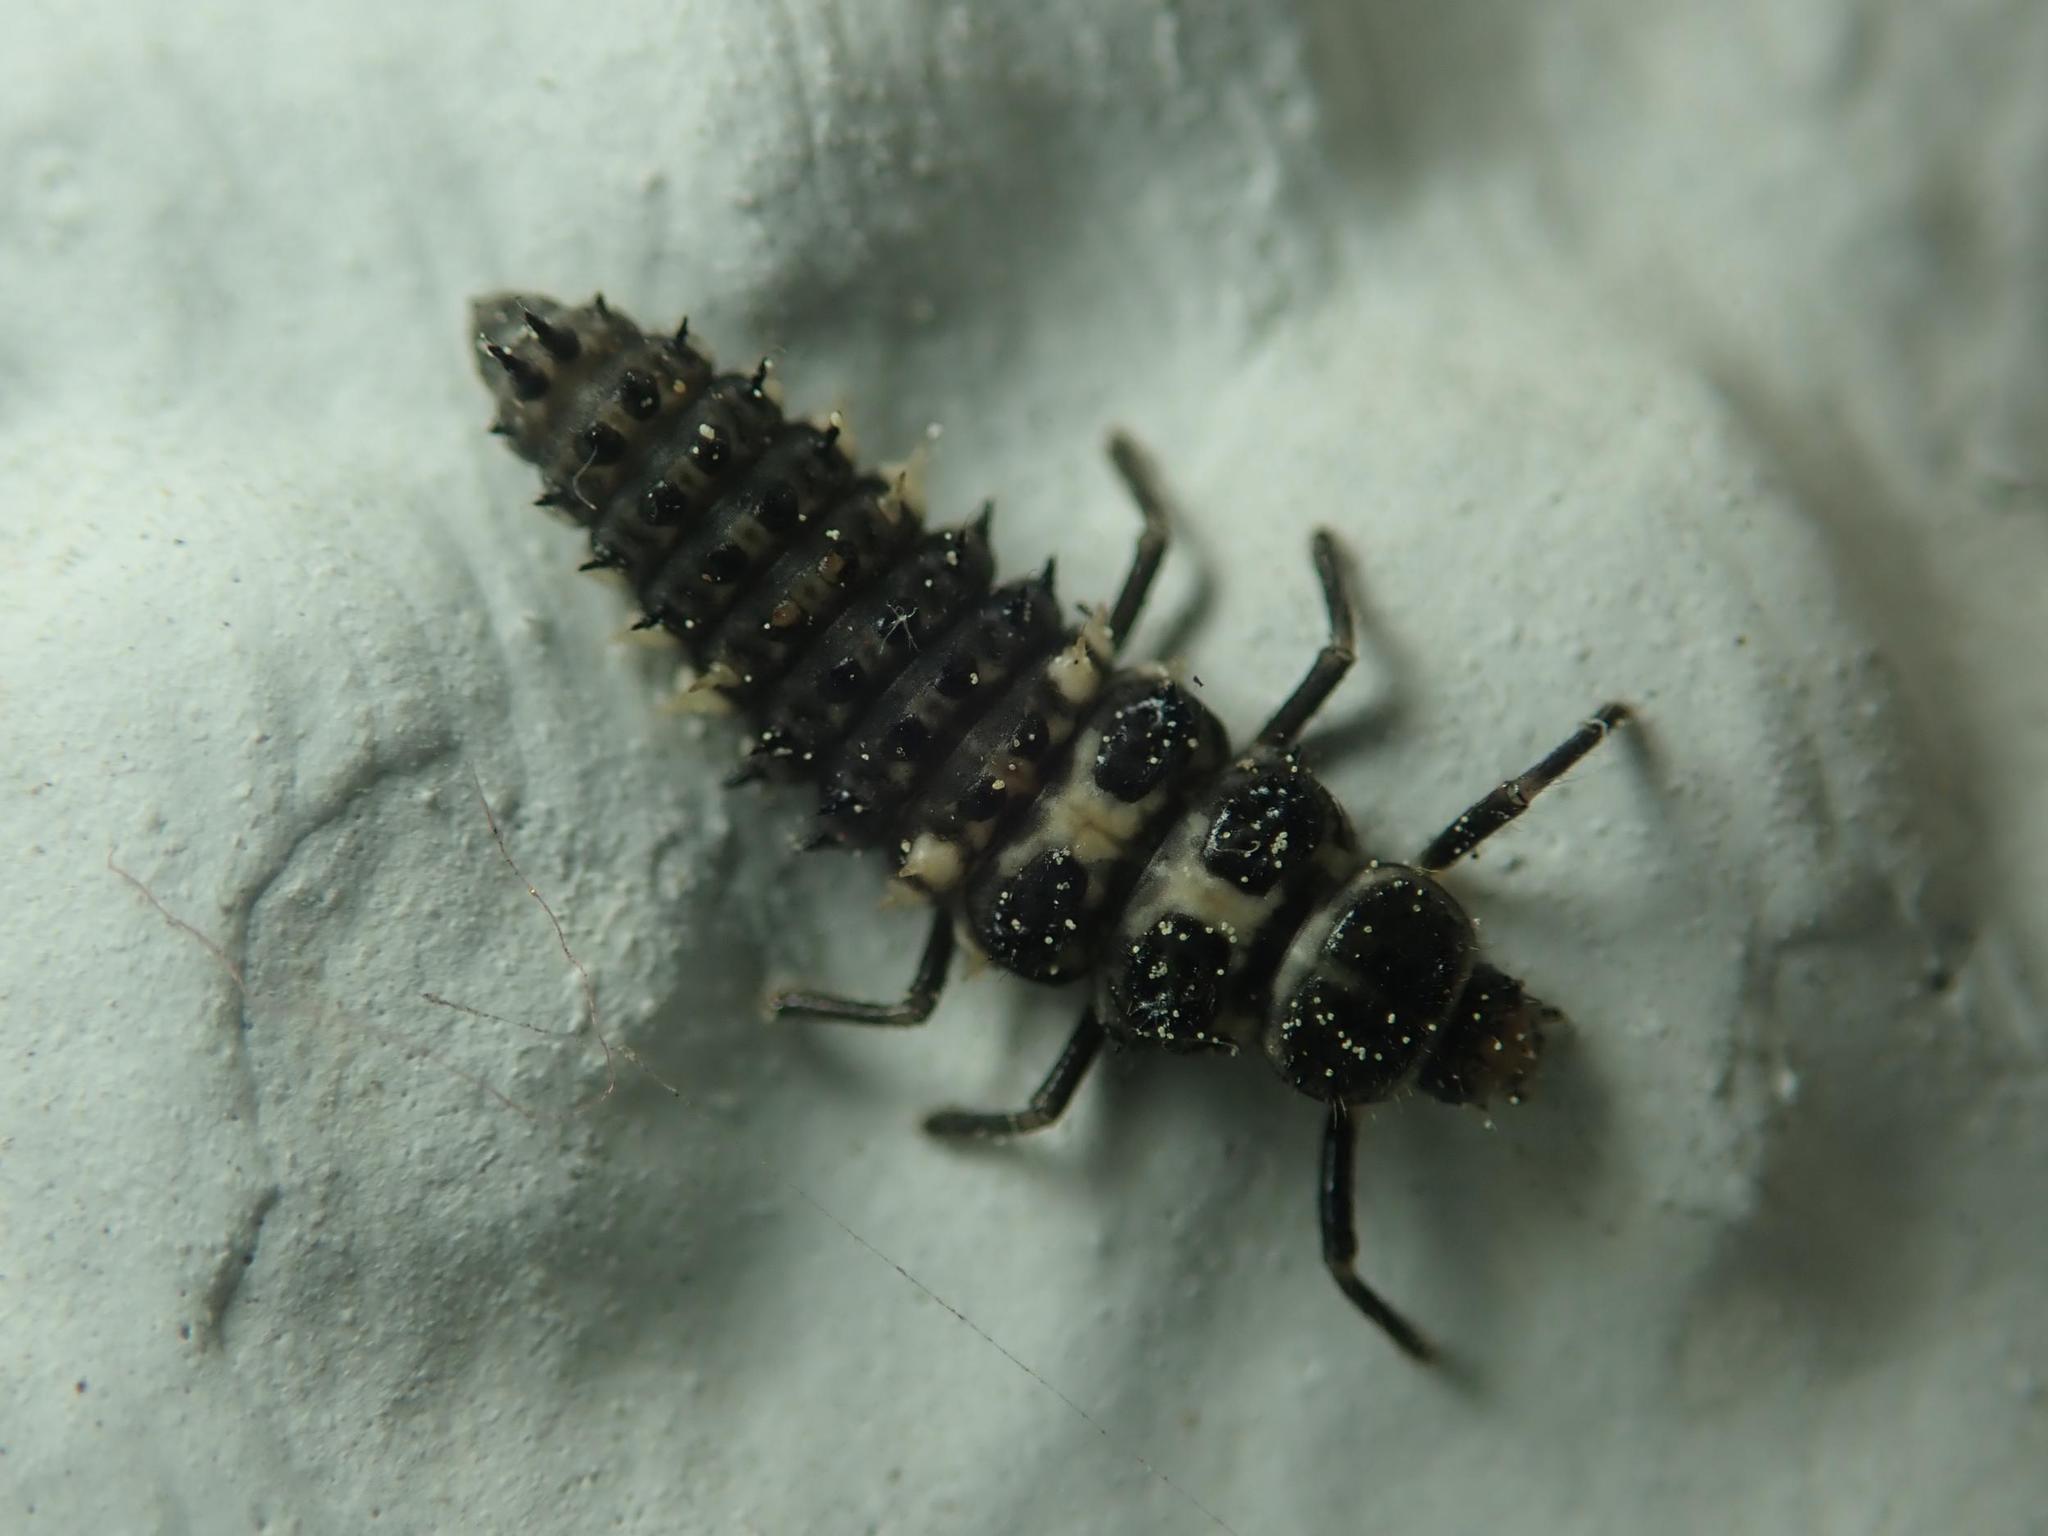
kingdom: Animalia
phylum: Arthropoda
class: Insecta
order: Coleoptera
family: Coccinellidae
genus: Calvia
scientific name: Calvia quatuordecimguttata
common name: Cream-spot ladybird
